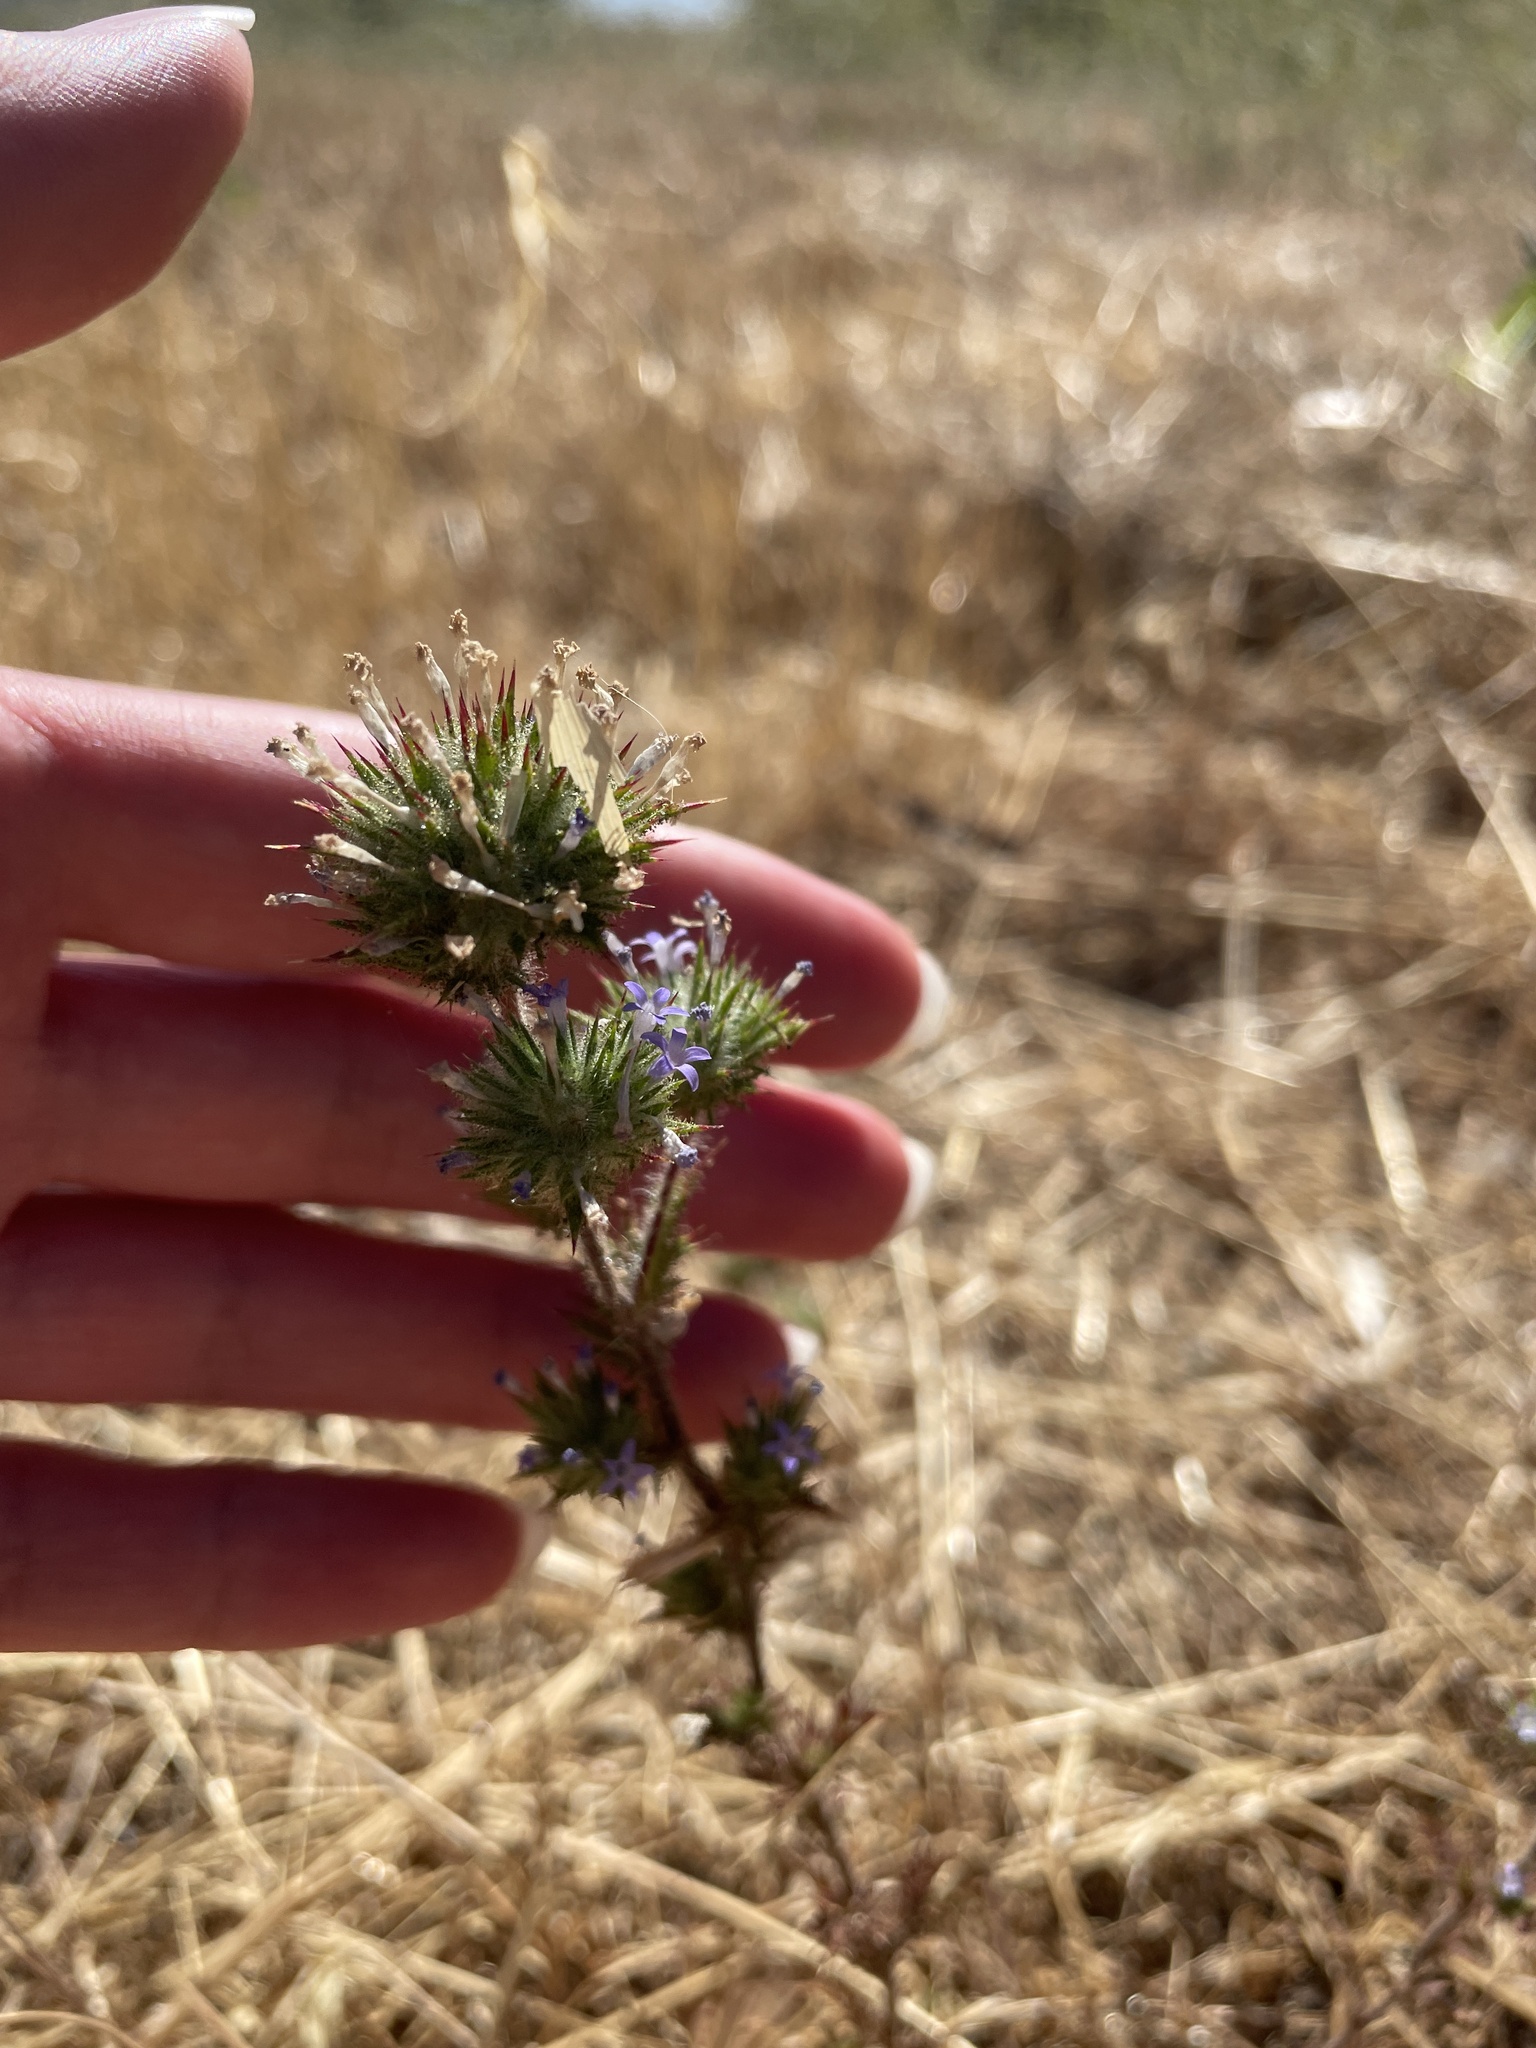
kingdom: Plantae
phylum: Tracheophyta
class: Magnoliopsida
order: Ericales
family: Polemoniaceae
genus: Navarretia
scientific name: Navarretia squarrosa
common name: Skunkweed
